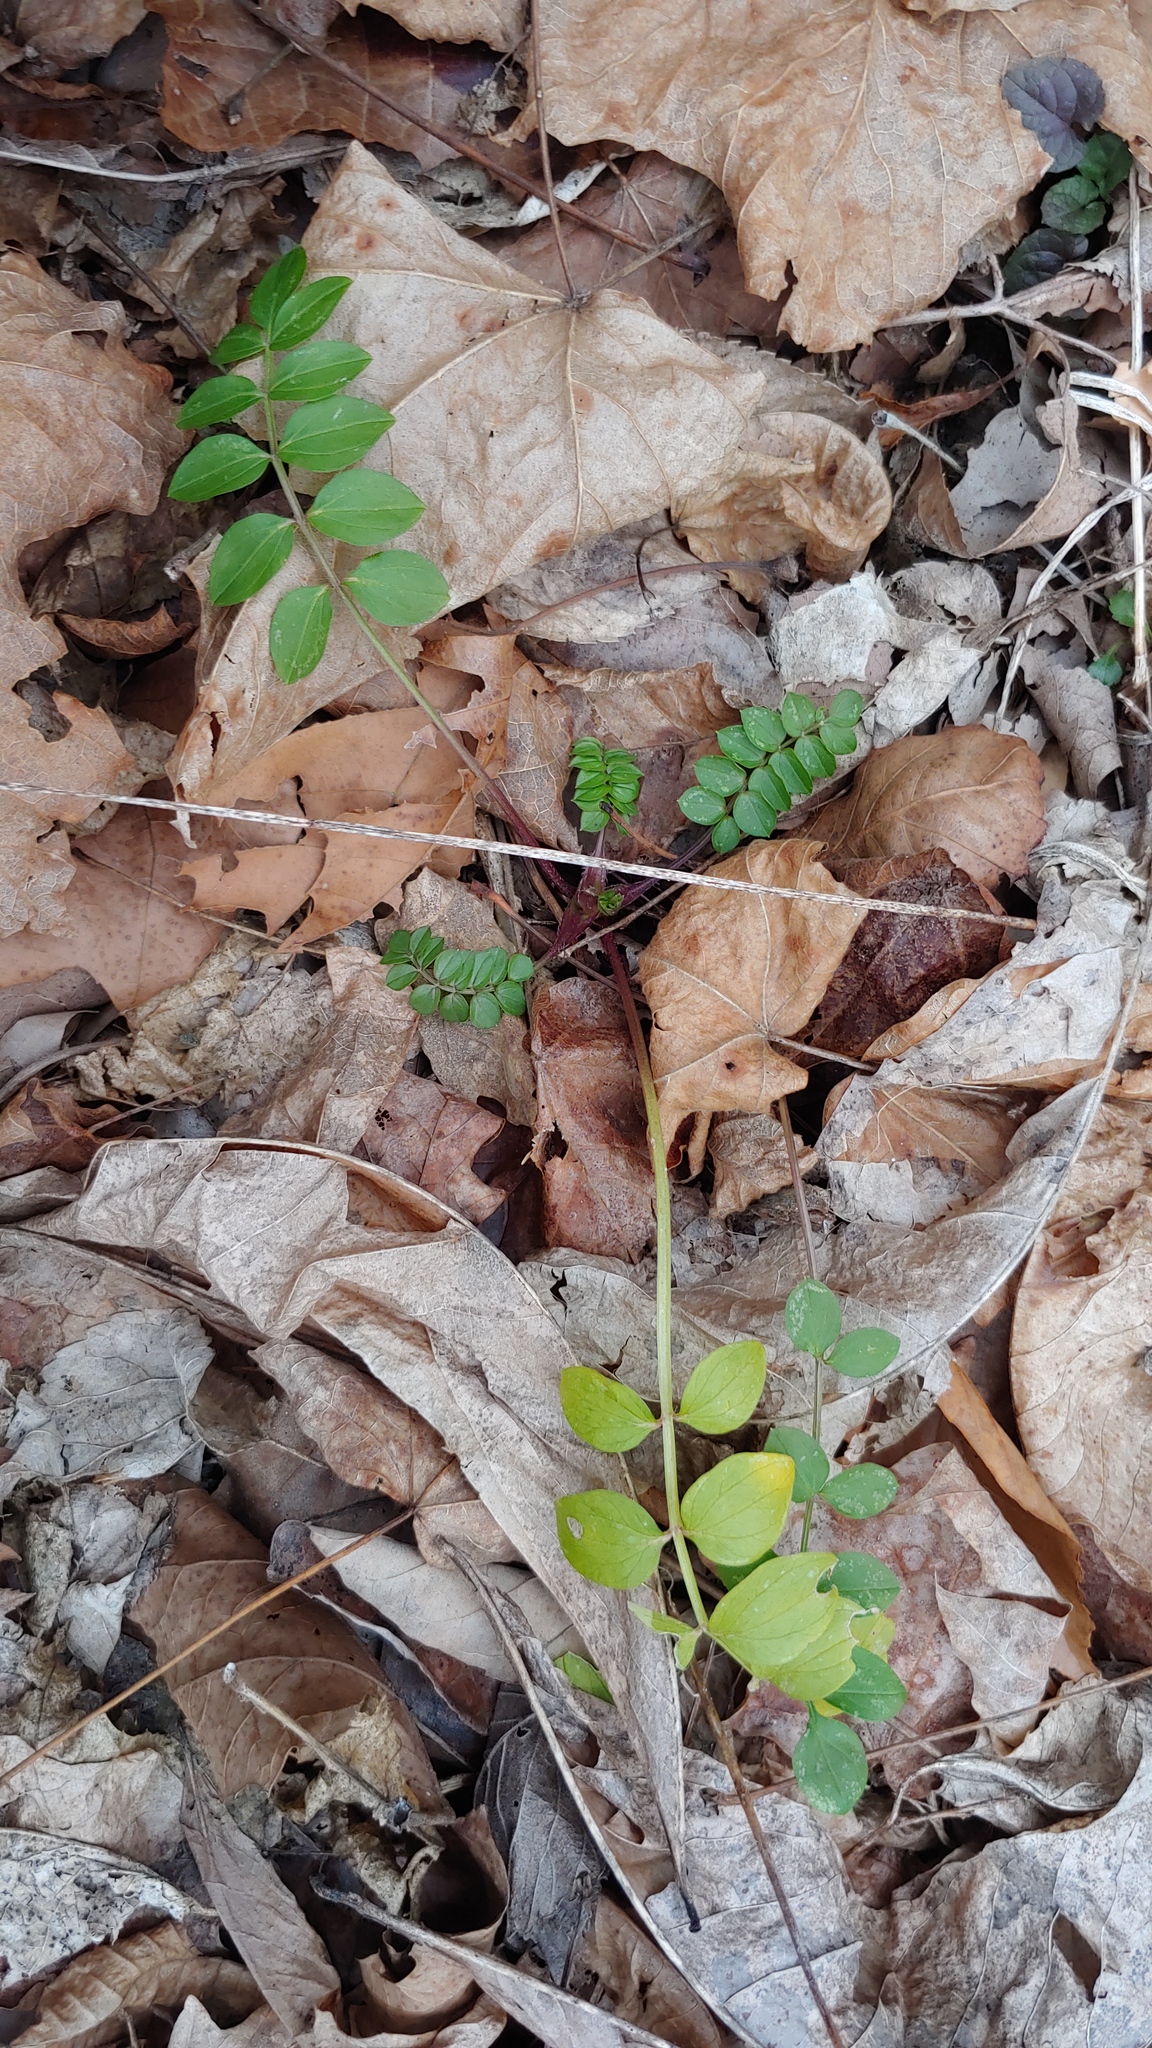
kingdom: Plantae
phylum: Tracheophyta
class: Magnoliopsida
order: Ericales
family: Polemoniaceae
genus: Polemonium
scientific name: Polemonium reptans
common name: Creeping jacob's-ladder
